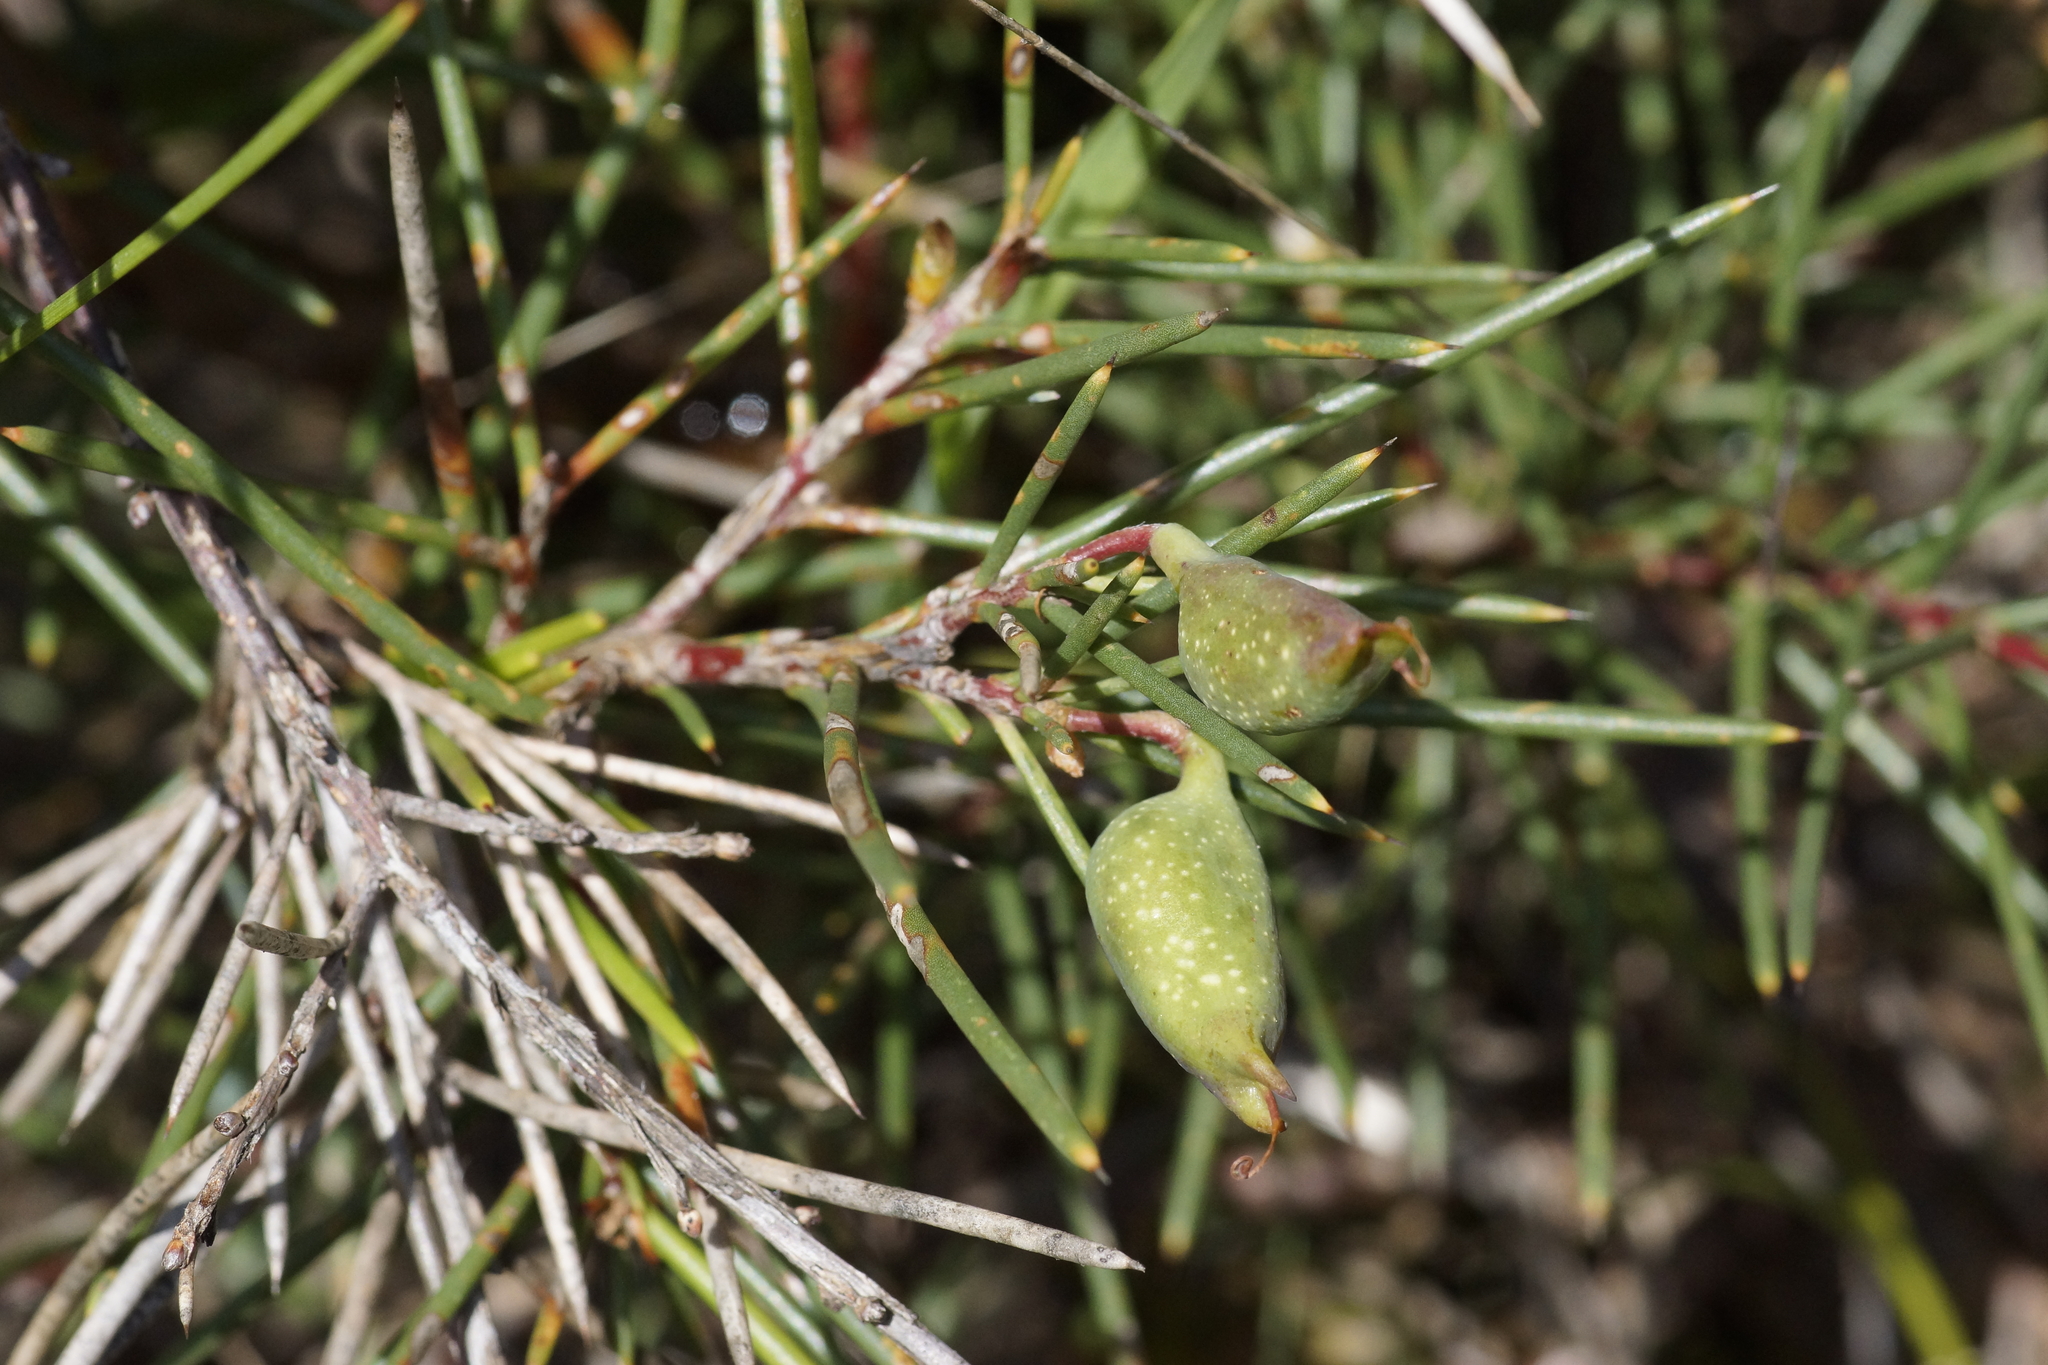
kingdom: Plantae
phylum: Tracheophyta
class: Magnoliopsida
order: Proteales
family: Proteaceae
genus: Hakea
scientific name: Hakea decurrens
